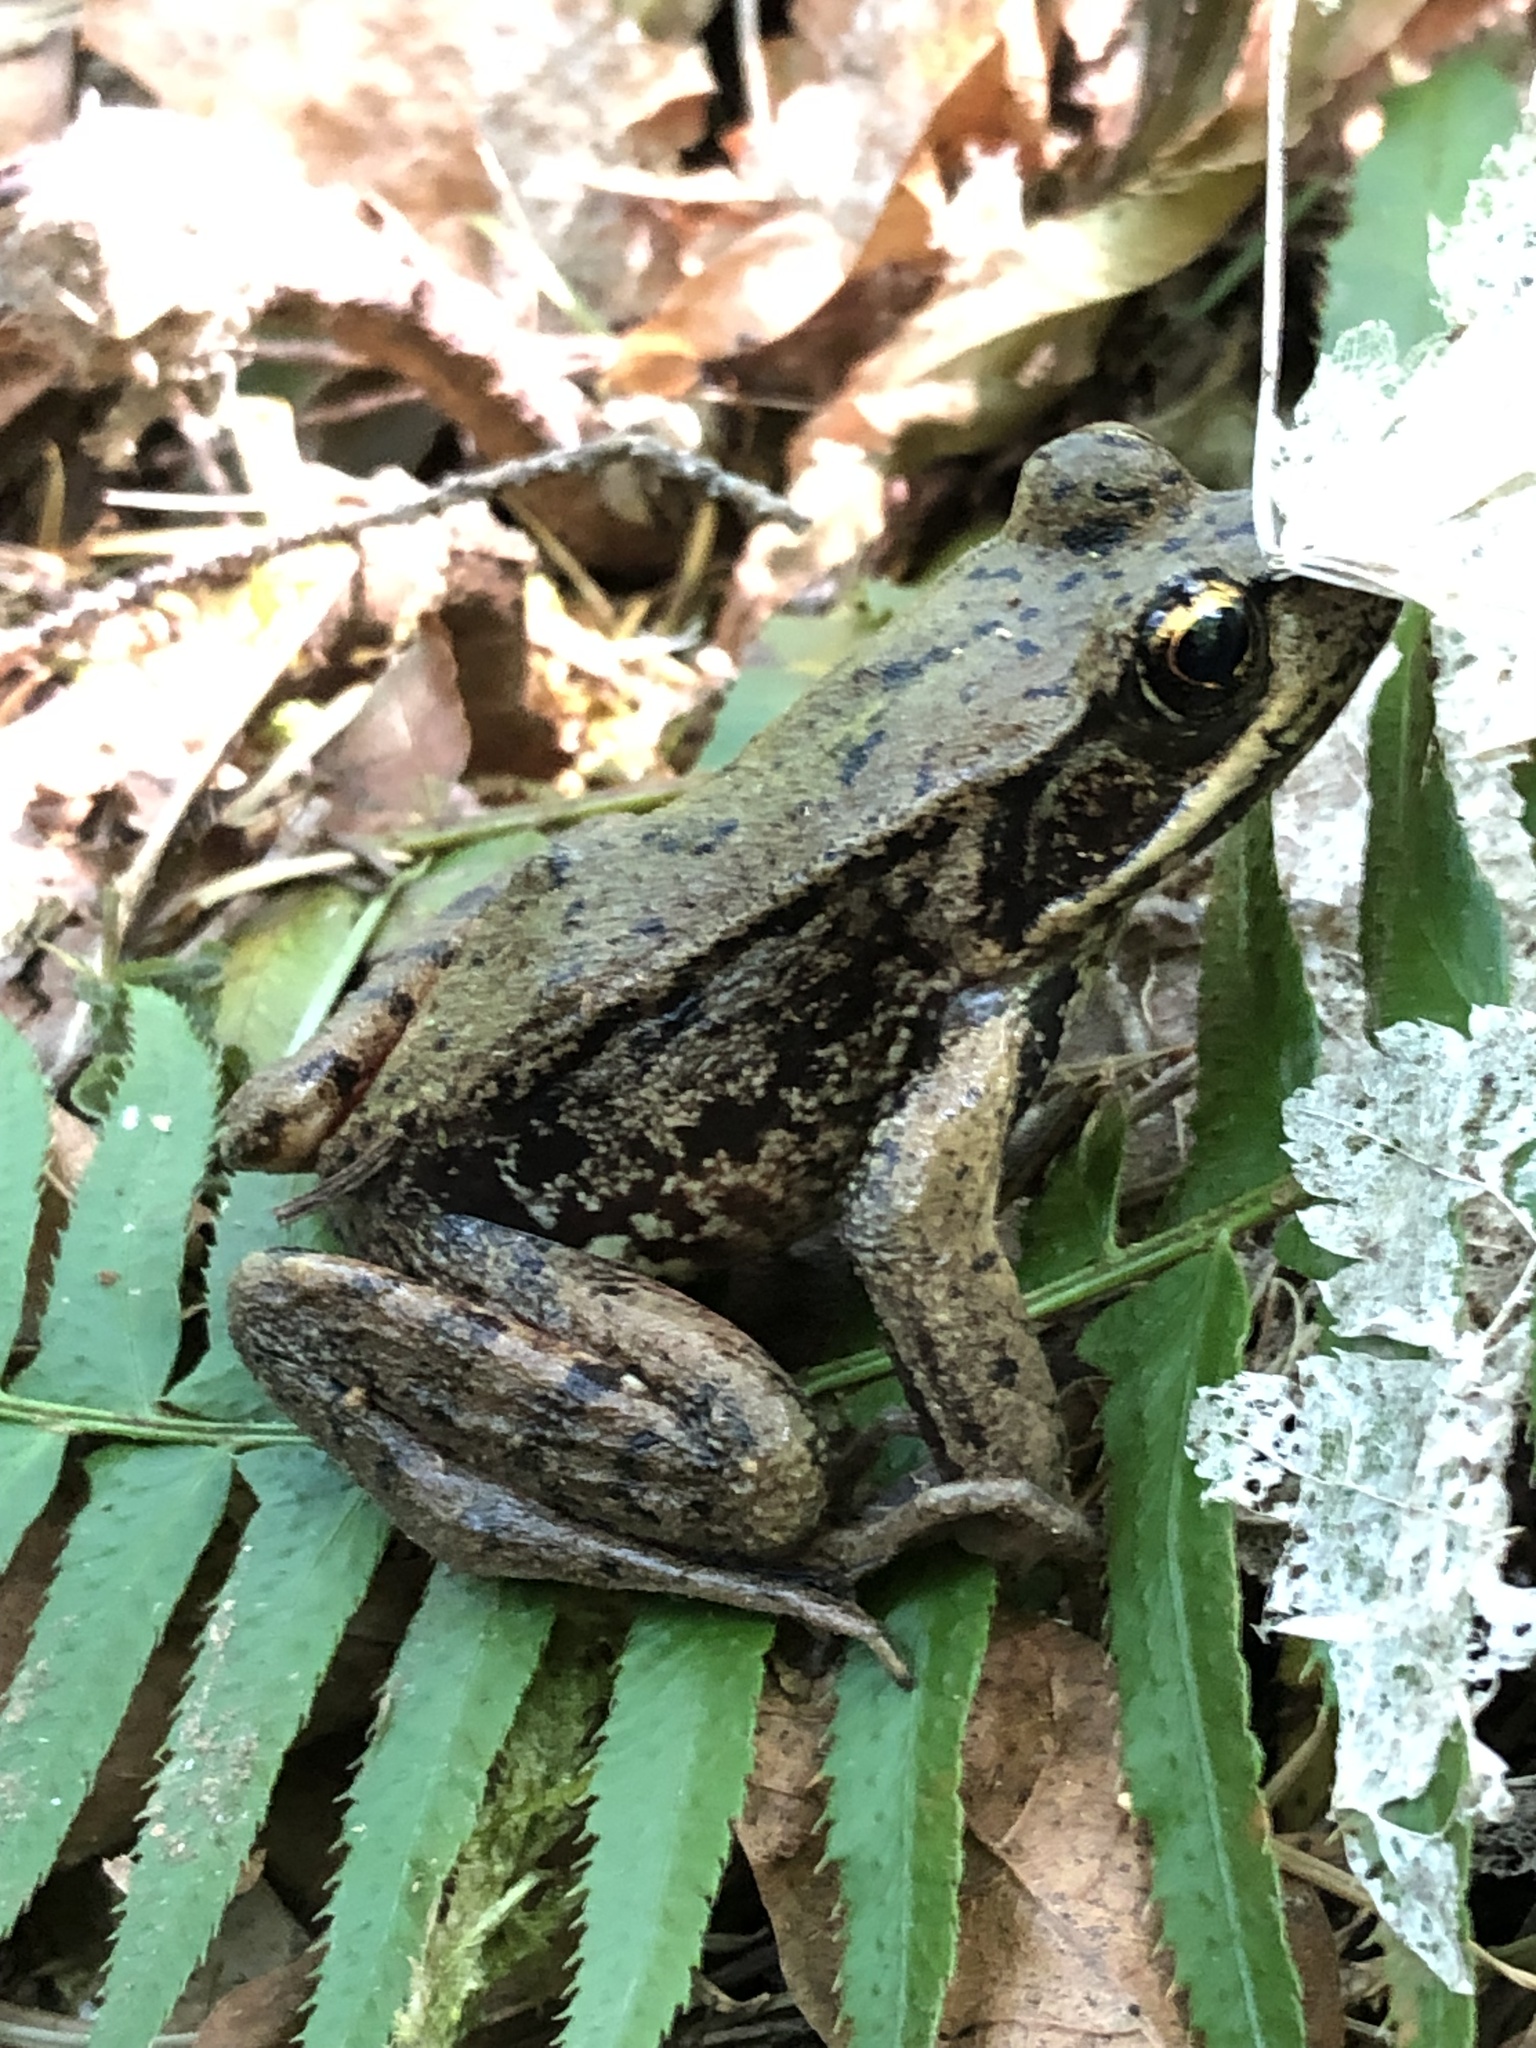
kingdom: Animalia
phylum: Chordata
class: Amphibia
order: Anura
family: Ranidae
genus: Rana
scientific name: Rana aurora
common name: Red-legged frog
